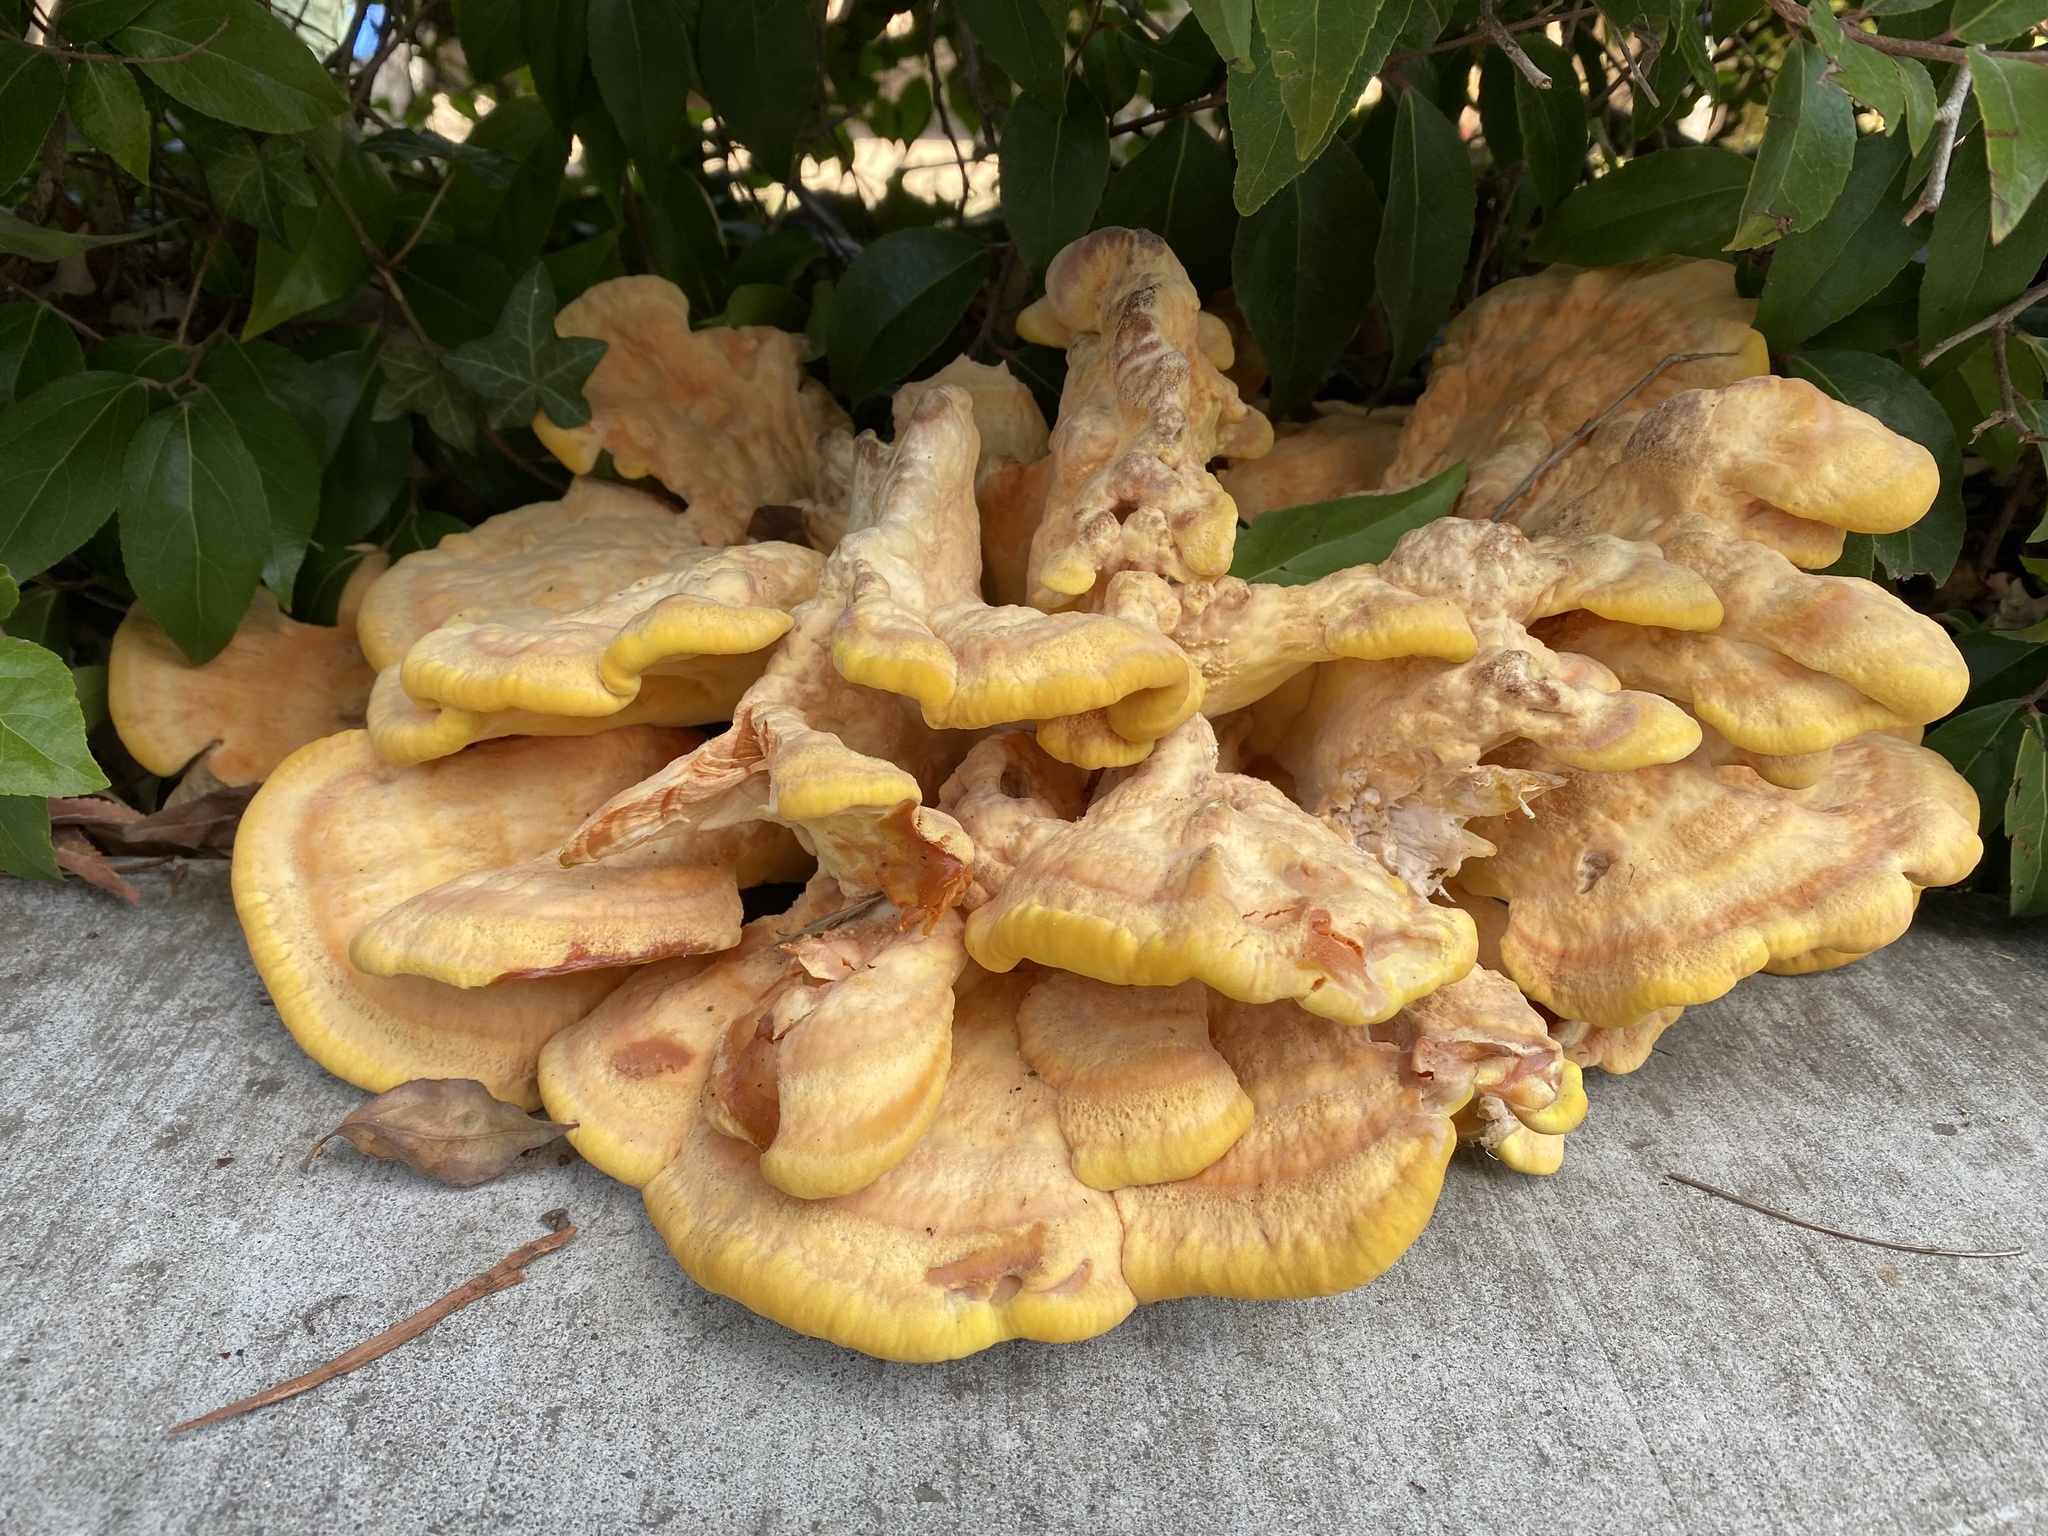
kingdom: Fungi
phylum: Basidiomycota
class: Agaricomycetes
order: Polyporales
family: Laetiporaceae
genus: Laetiporus
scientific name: Laetiporus gilbertsonii
